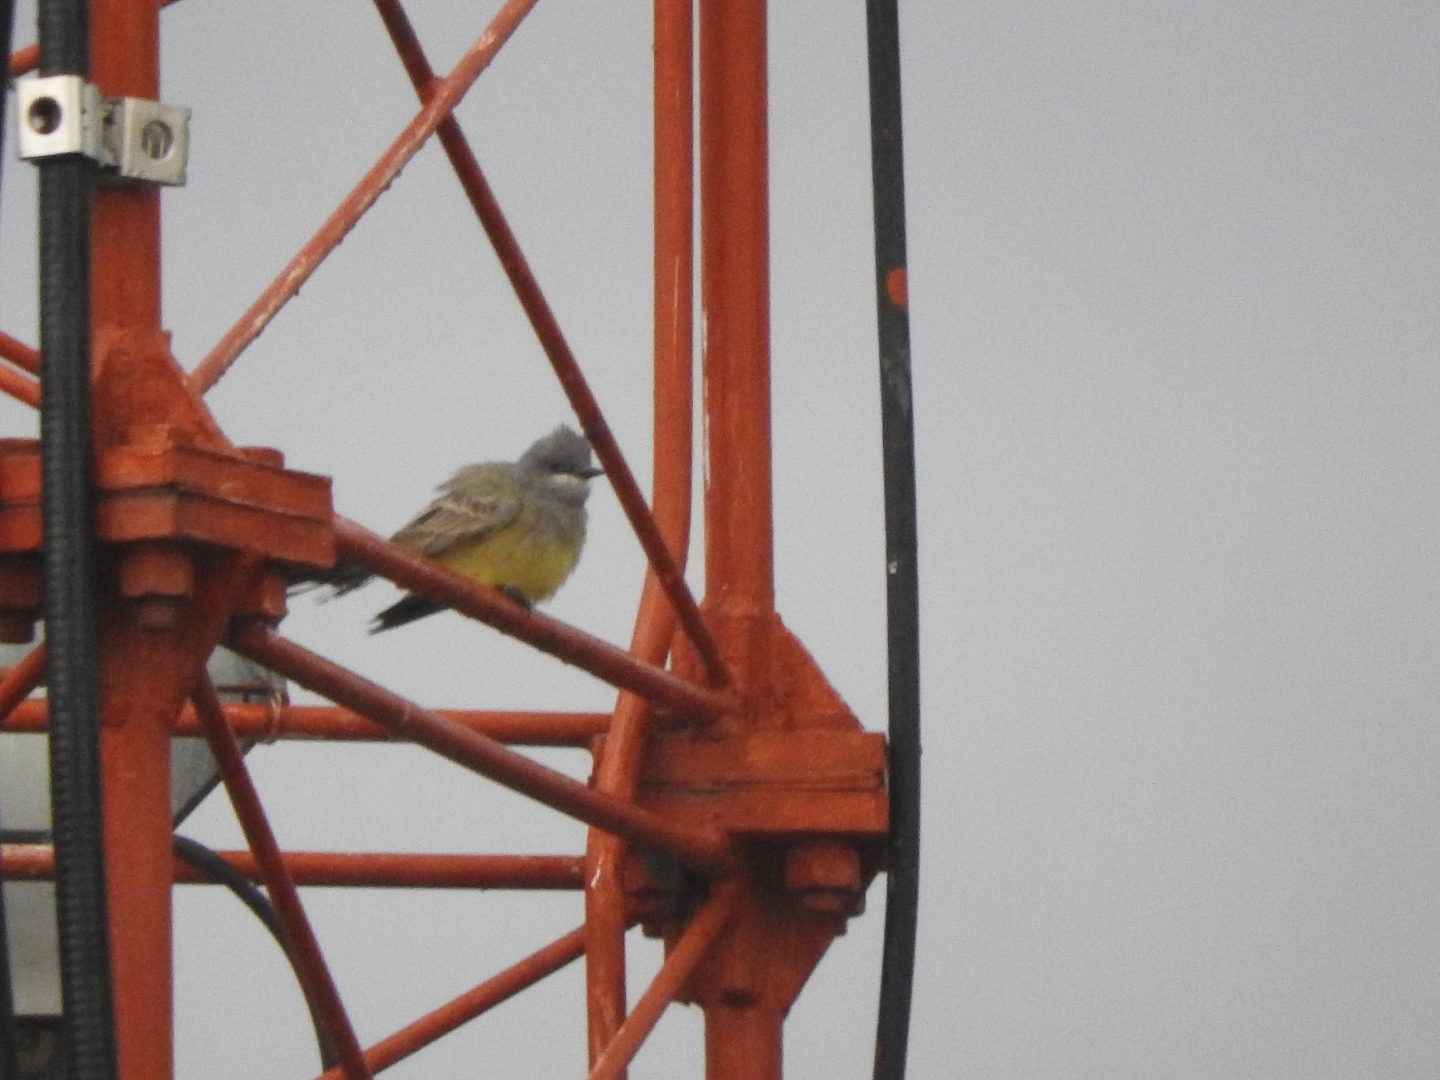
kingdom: Animalia
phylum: Chordata
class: Aves
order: Passeriformes
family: Tyrannidae
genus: Tyrannus
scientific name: Tyrannus vociferans
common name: Cassin's kingbird
